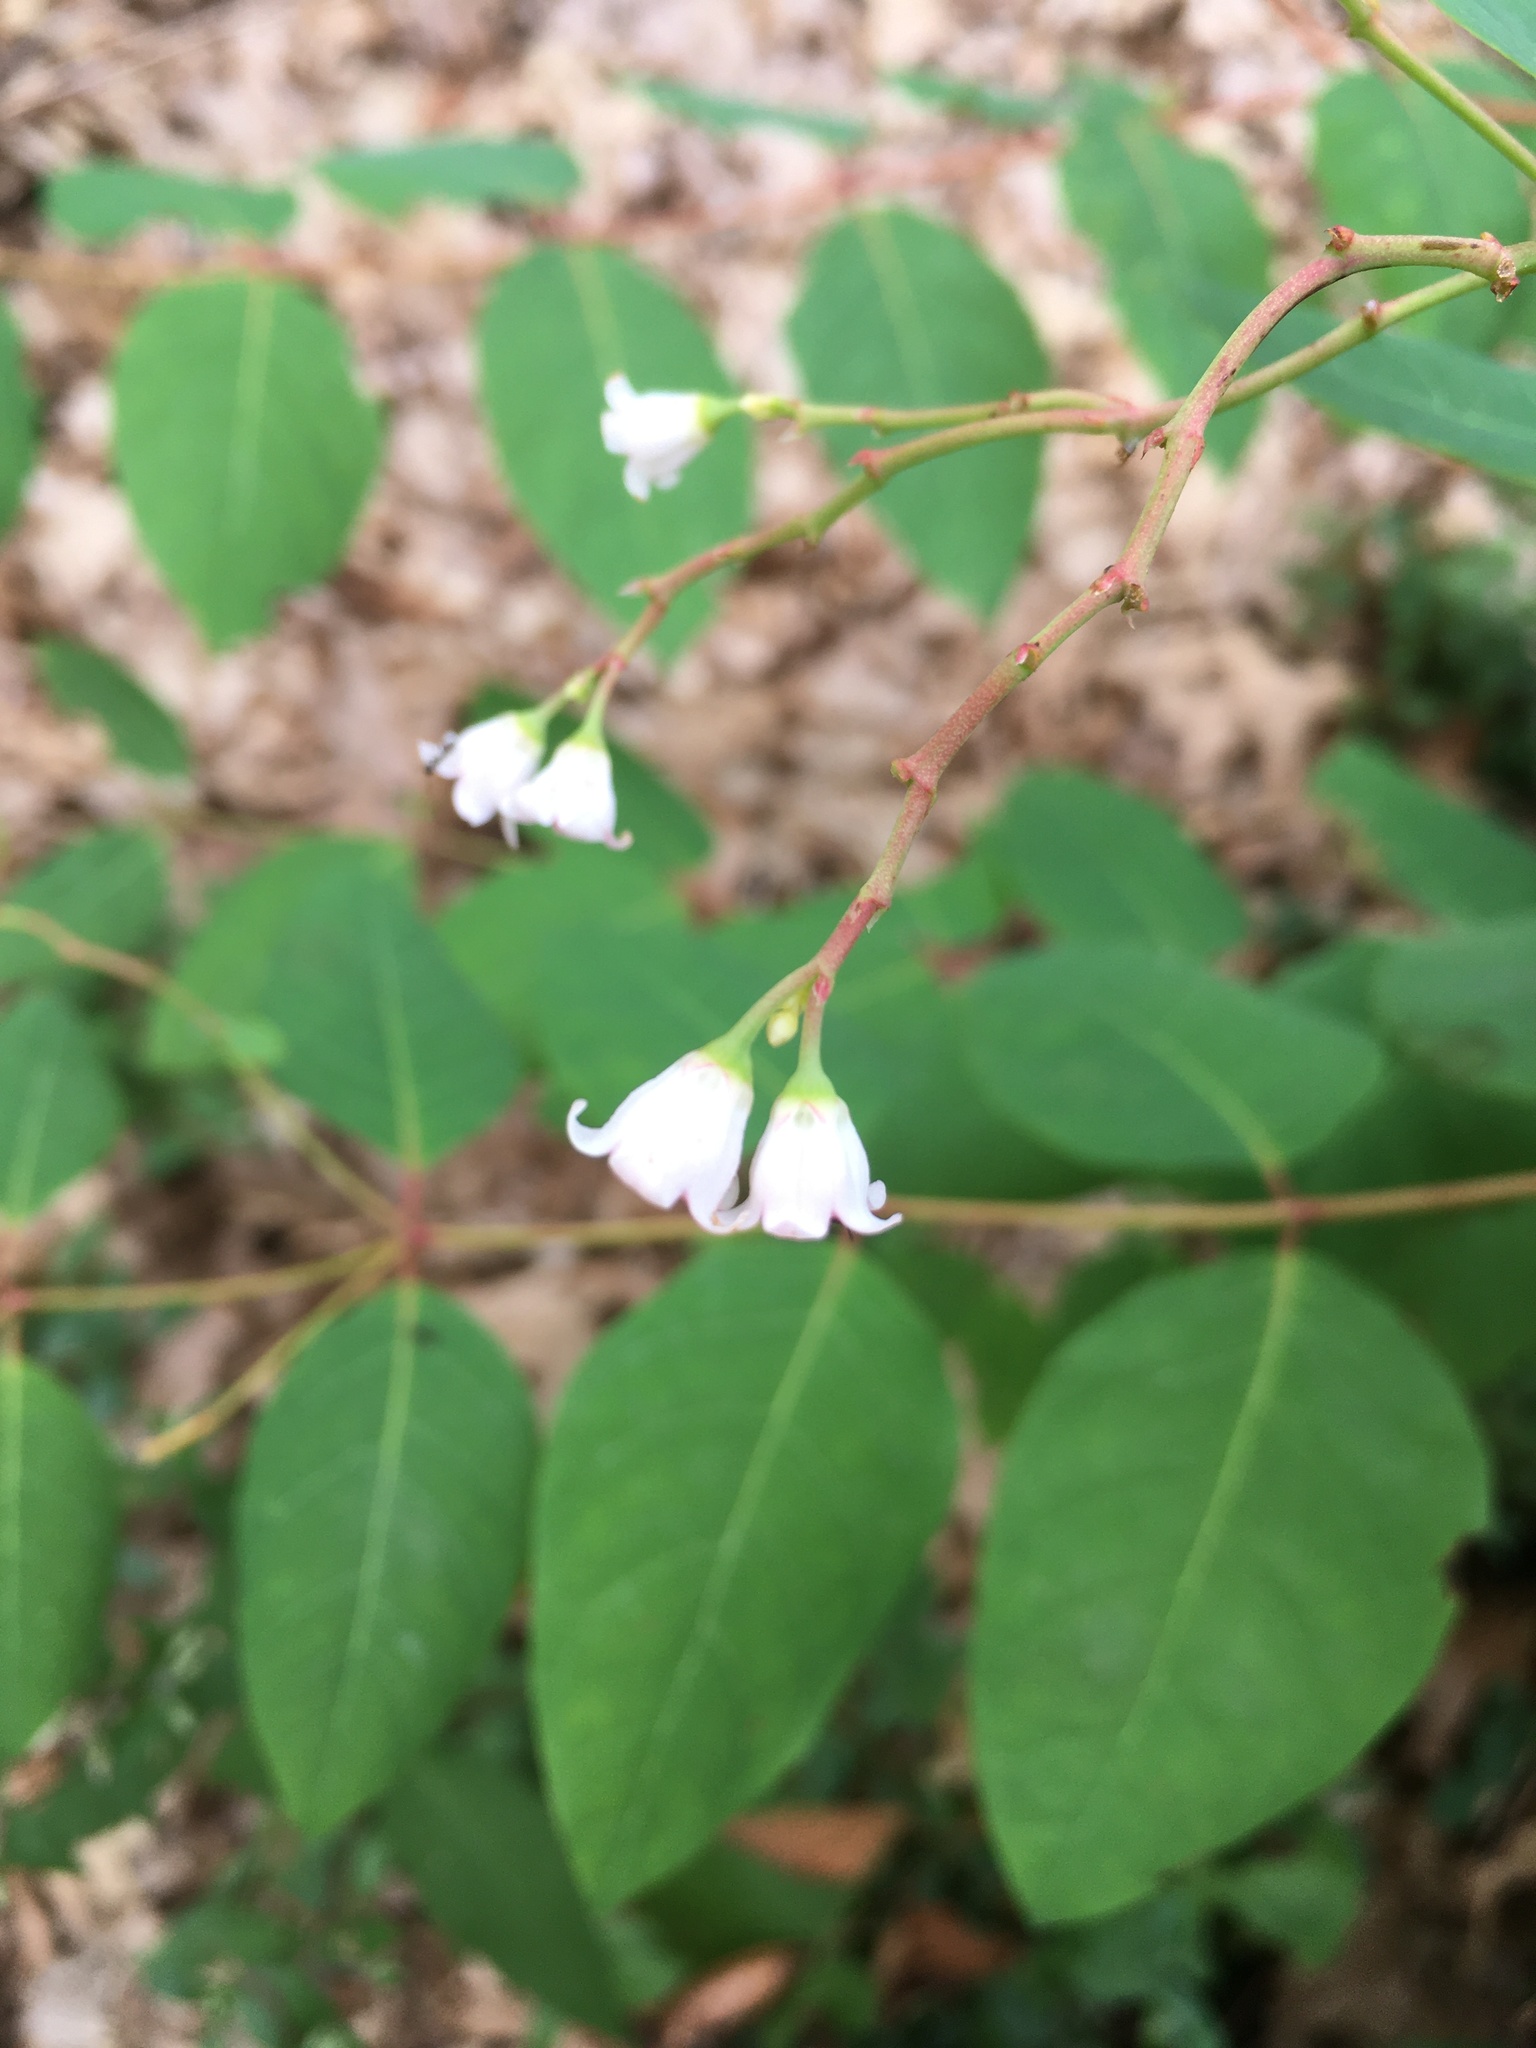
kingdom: Plantae
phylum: Tracheophyta
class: Magnoliopsida
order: Gentianales
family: Apocynaceae
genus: Apocynum
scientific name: Apocynum androsaemifolium
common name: Spreading dogbane
